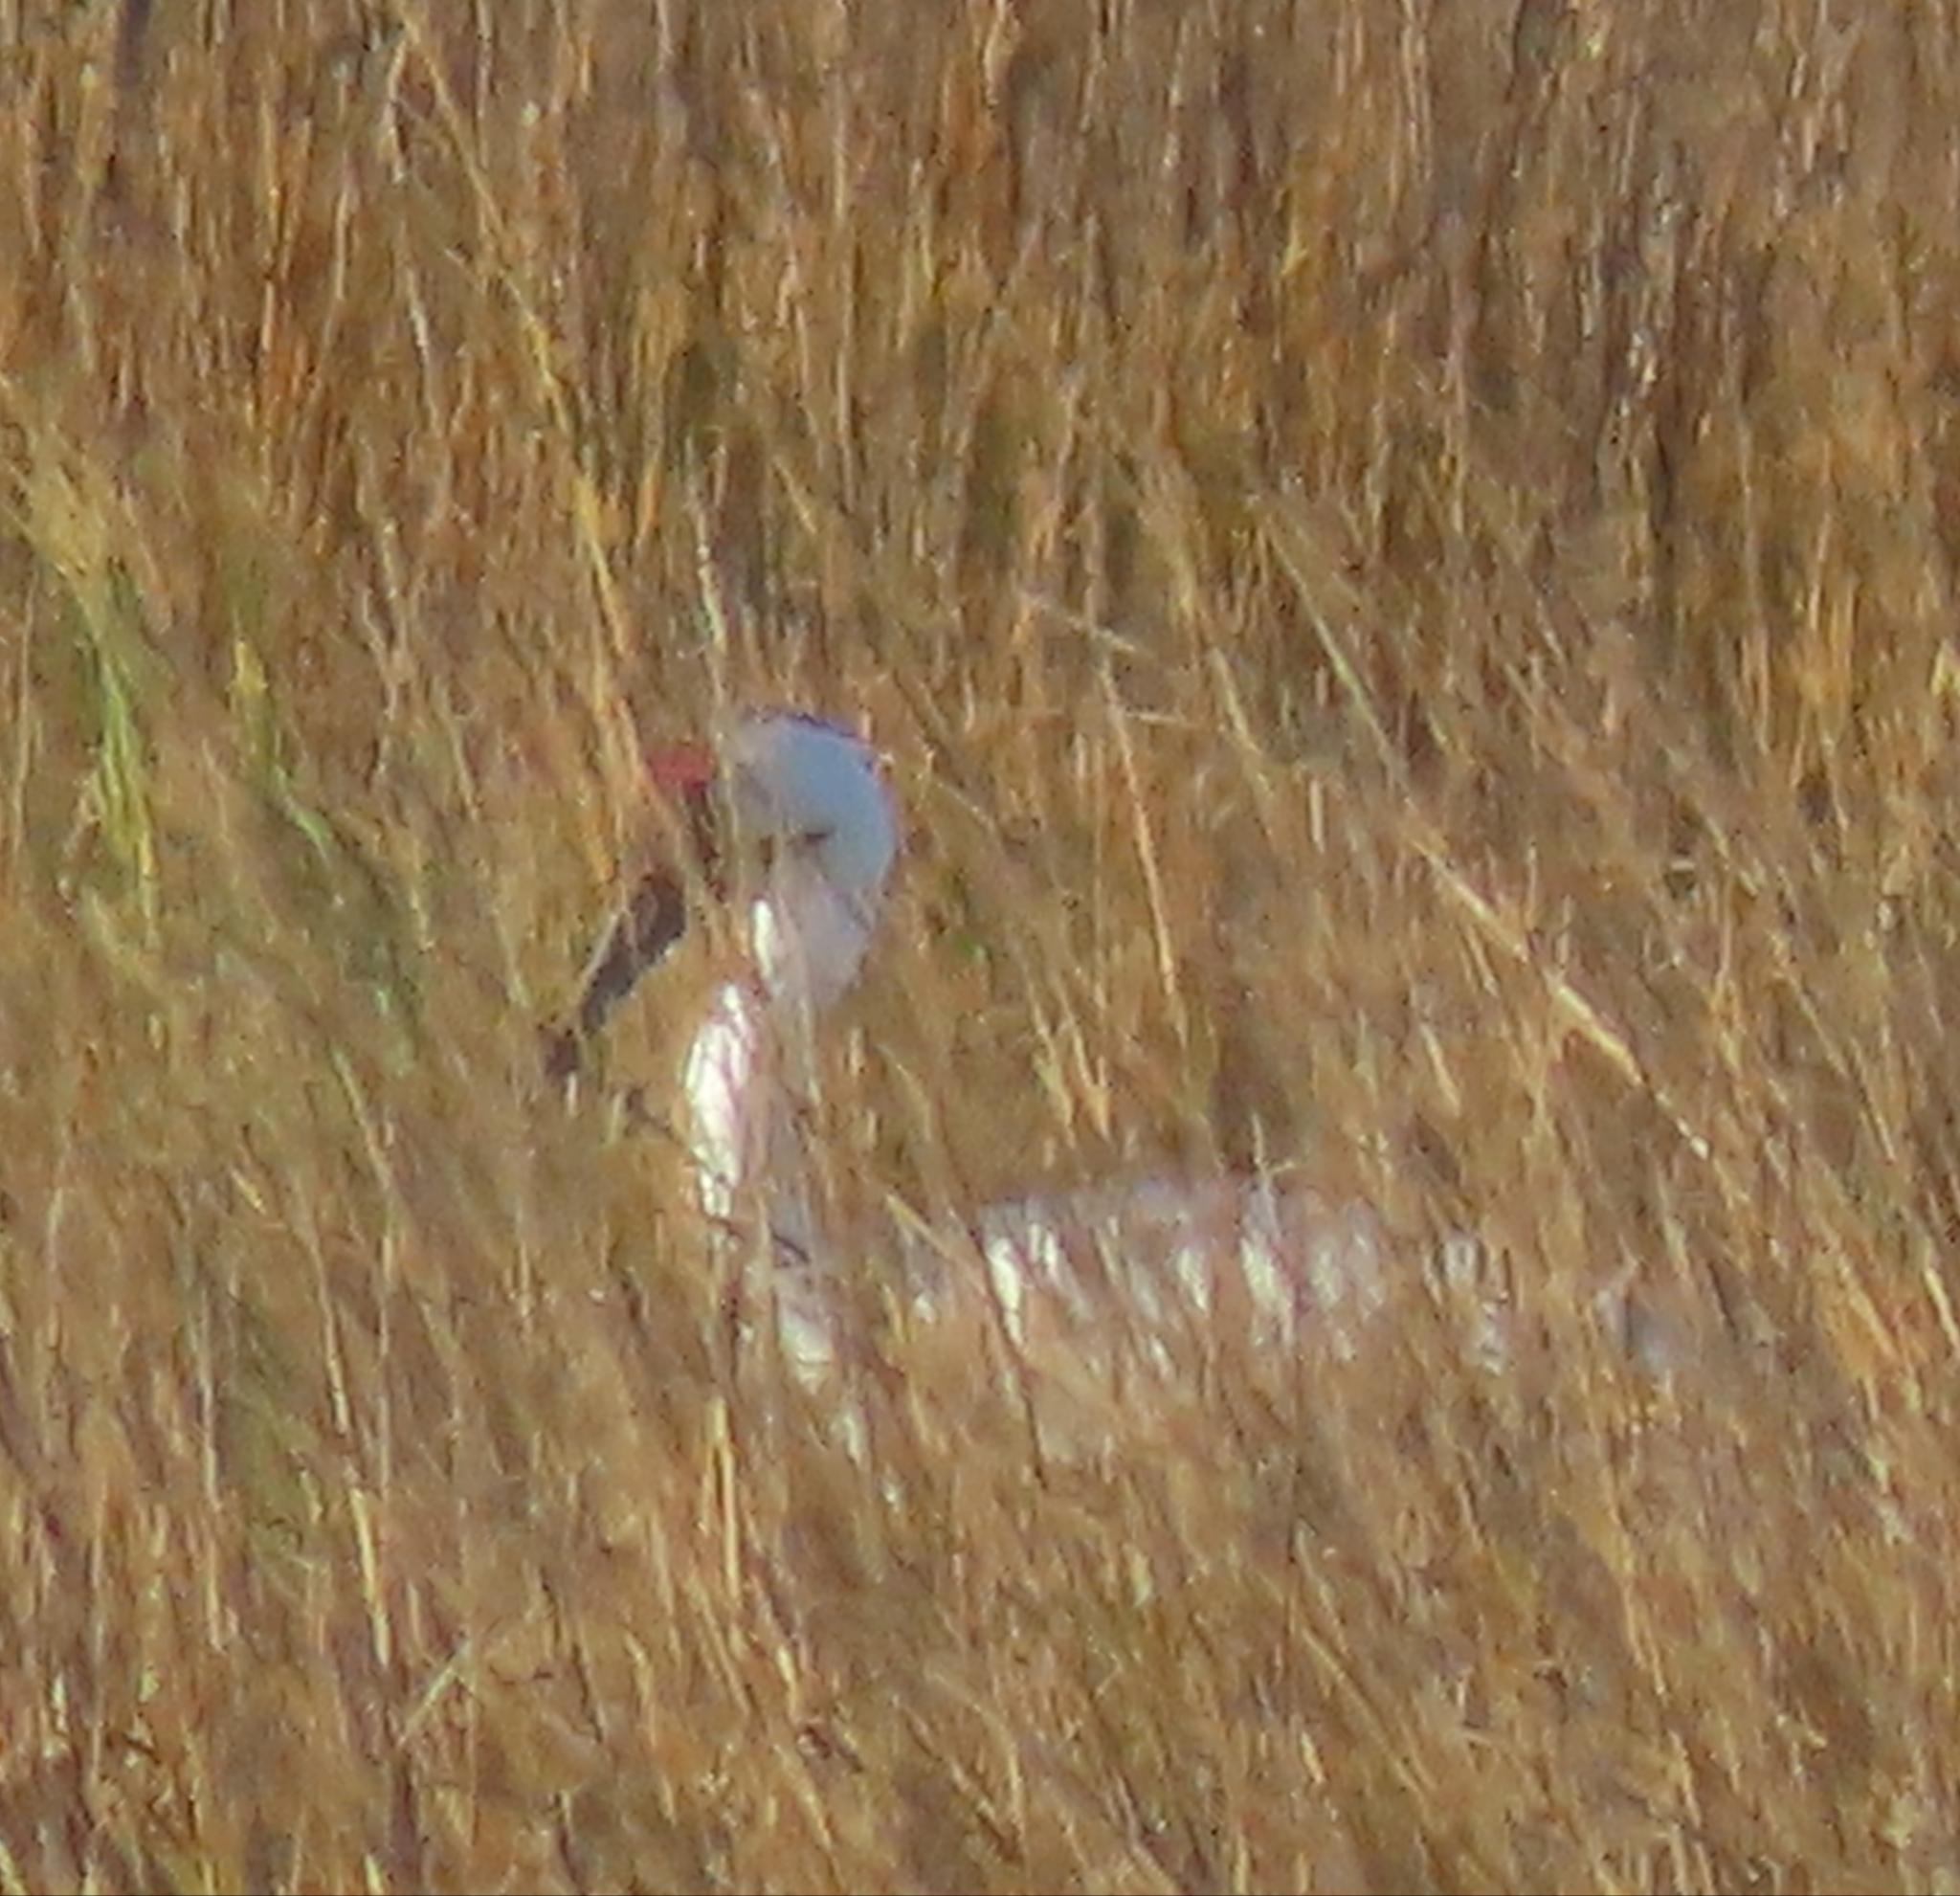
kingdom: Animalia
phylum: Chordata
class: Aves
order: Gruiformes
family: Gruidae
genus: Grus
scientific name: Grus americana
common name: Whooping crane
